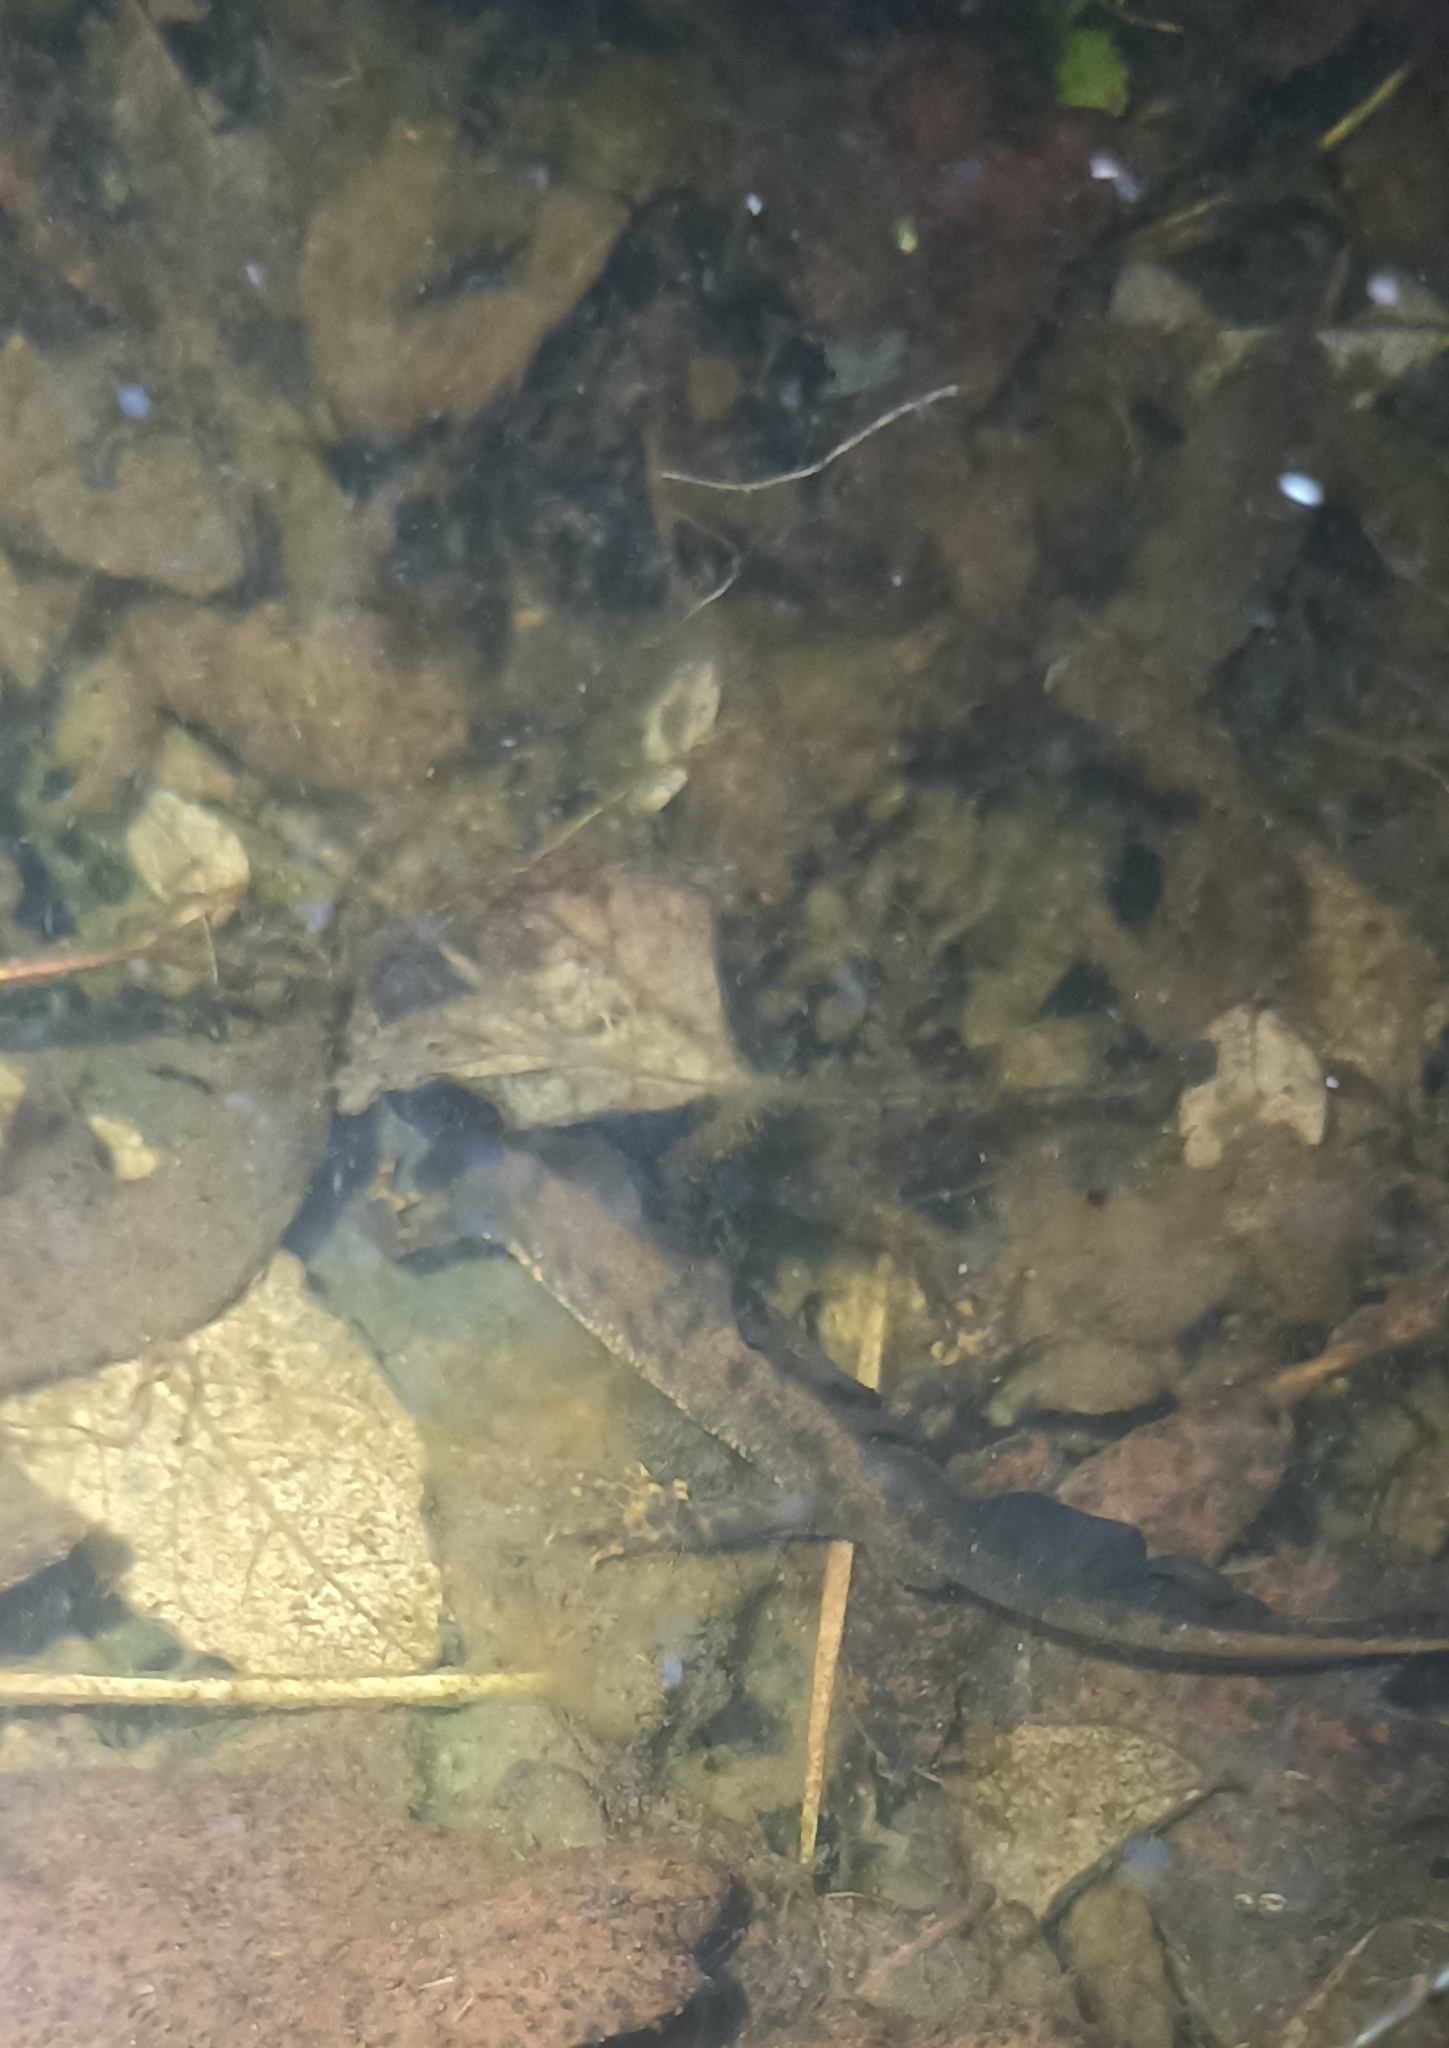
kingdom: Animalia
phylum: Chordata
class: Amphibia
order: Caudata
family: Salamandridae
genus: Triturus
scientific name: Triturus cristatus
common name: Crested newt
